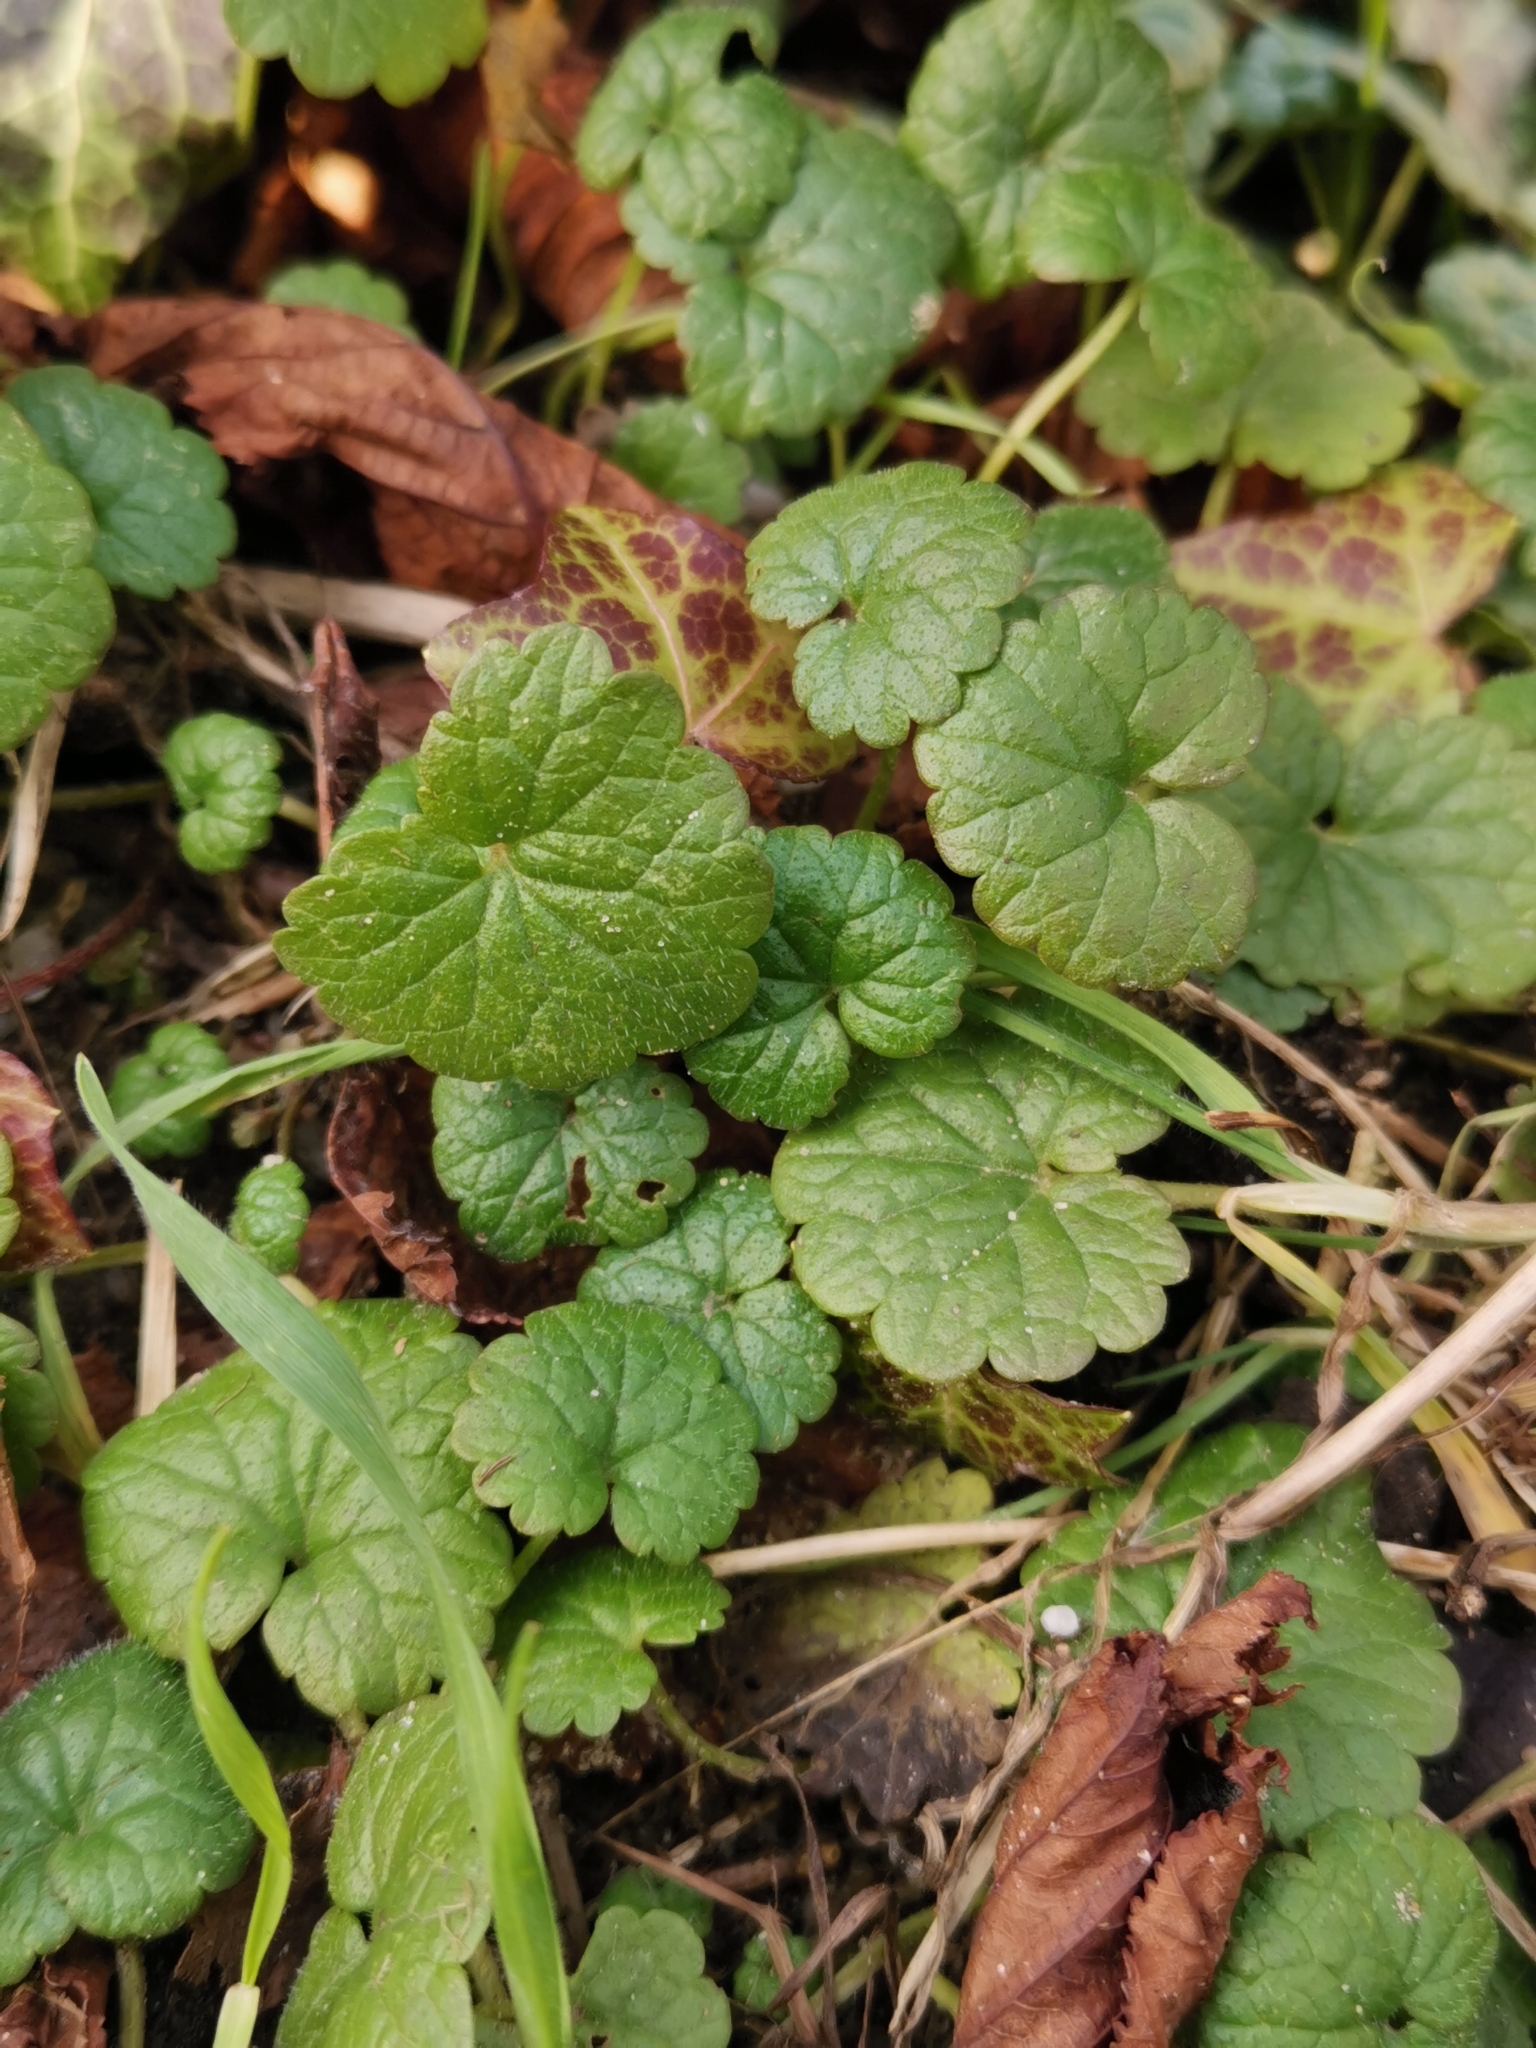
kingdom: Plantae
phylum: Tracheophyta
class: Magnoliopsida
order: Lamiales
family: Lamiaceae
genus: Glechoma
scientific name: Glechoma hederacea
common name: Ground ivy
